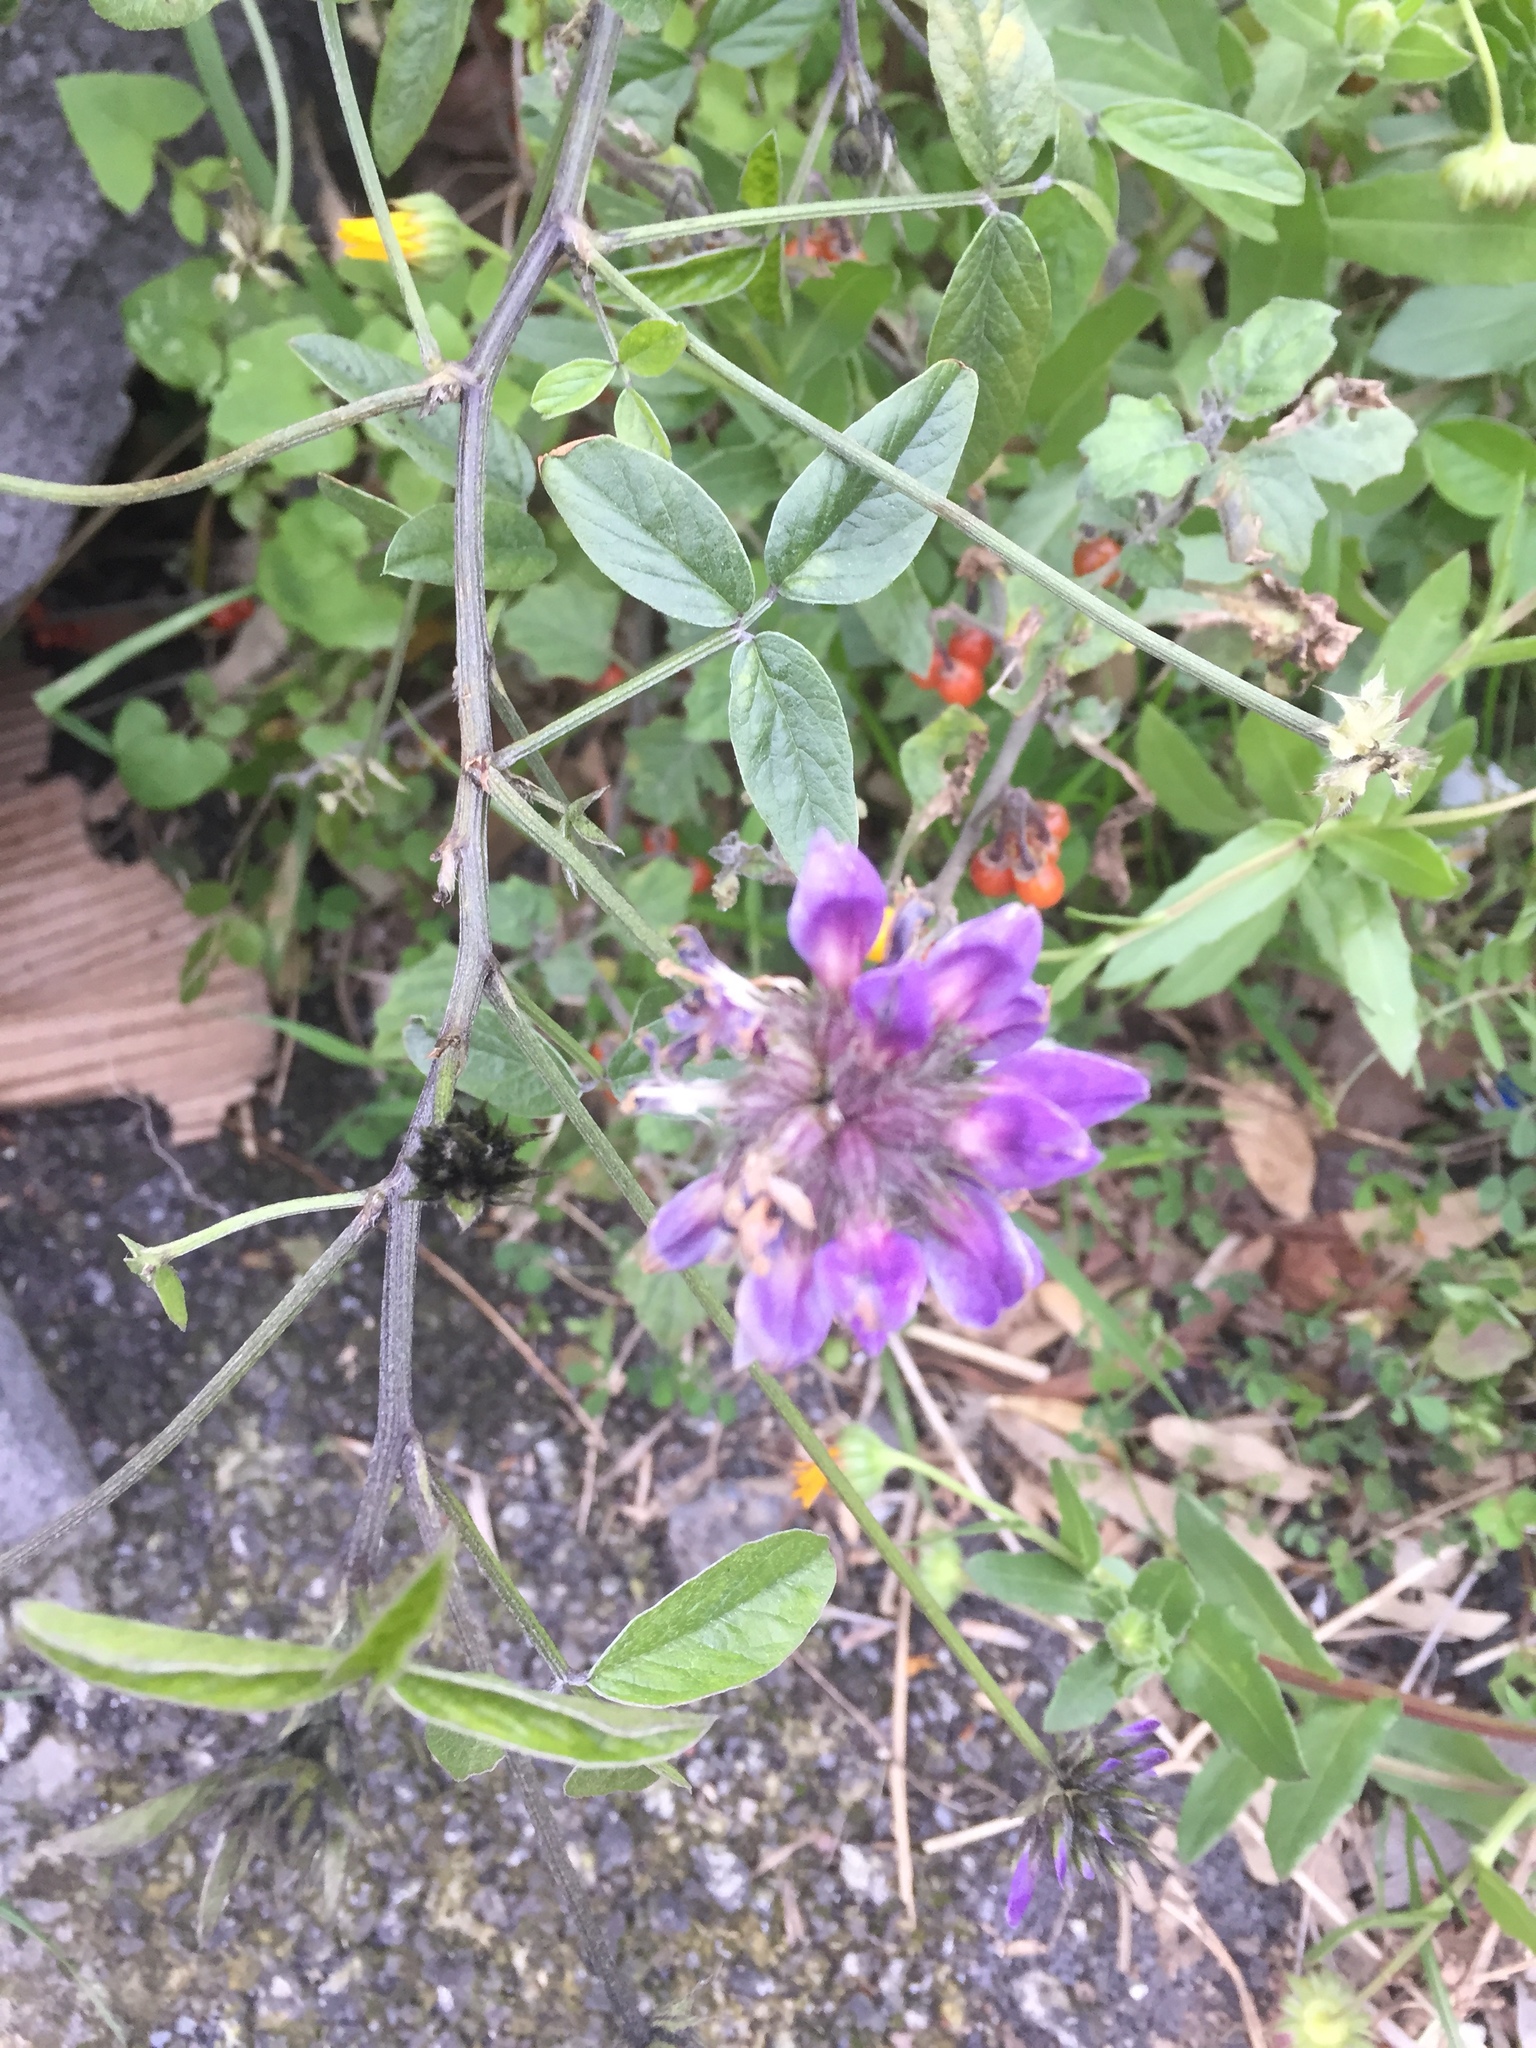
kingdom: Plantae
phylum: Tracheophyta
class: Magnoliopsida
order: Fabales
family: Fabaceae
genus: Bituminaria
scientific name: Bituminaria bituminosa
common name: Arabian pea
